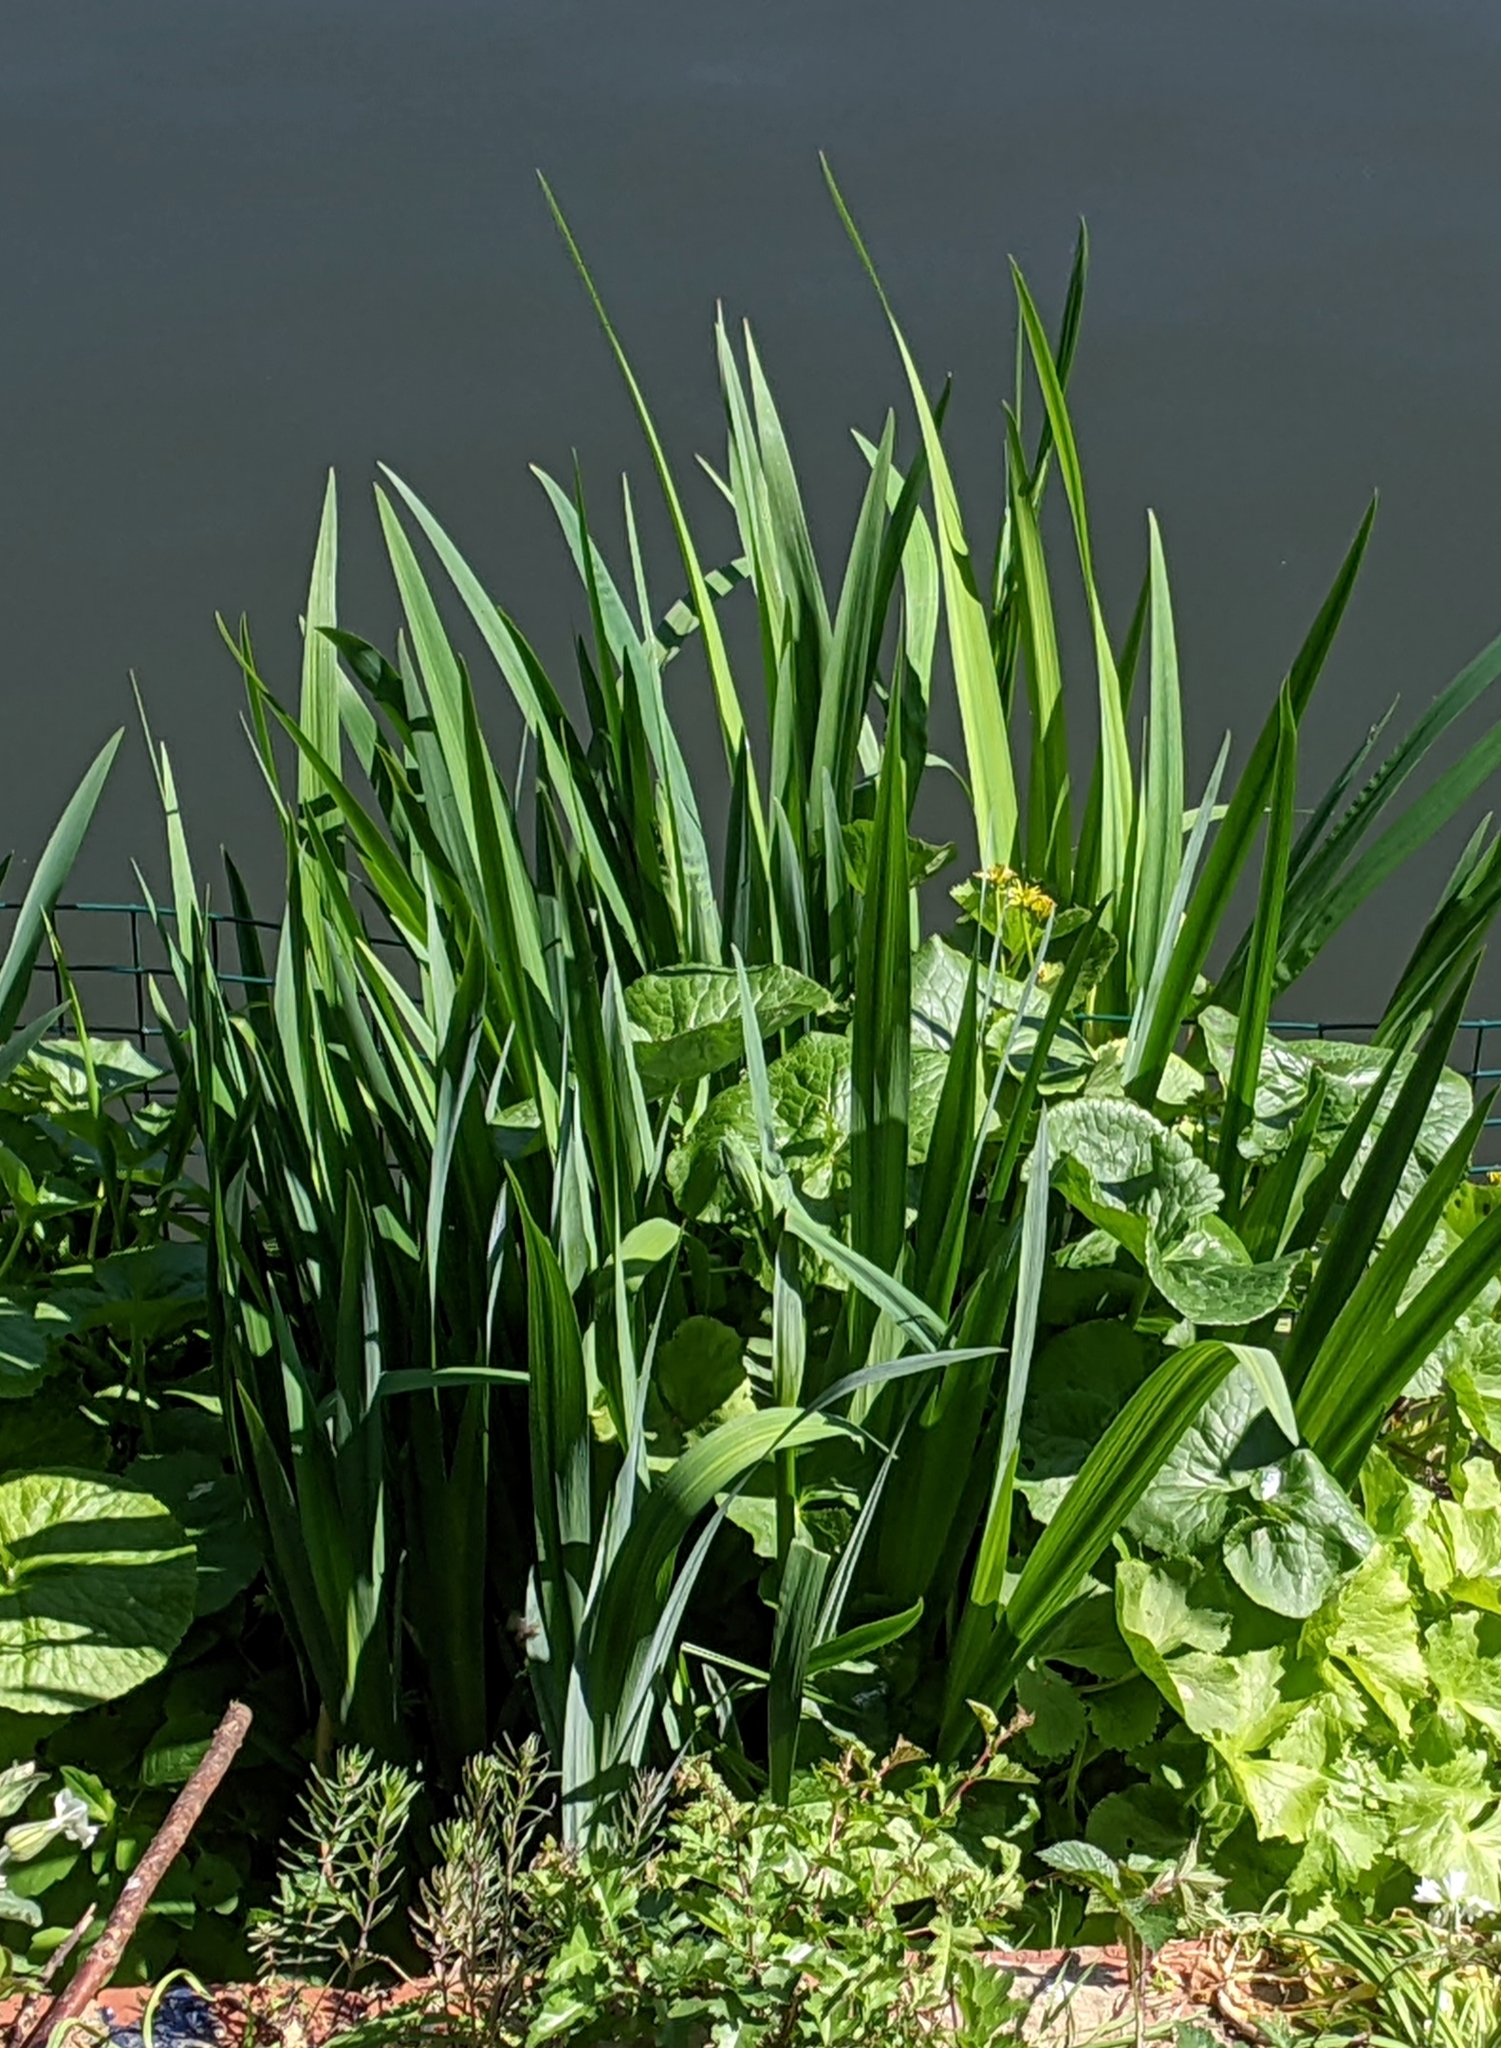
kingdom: Plantae
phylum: Tracheophyta
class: Liliopsida
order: Asparagales
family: Iridaceae
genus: Iris
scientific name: Iris pseudacorus
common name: Yellow flag
